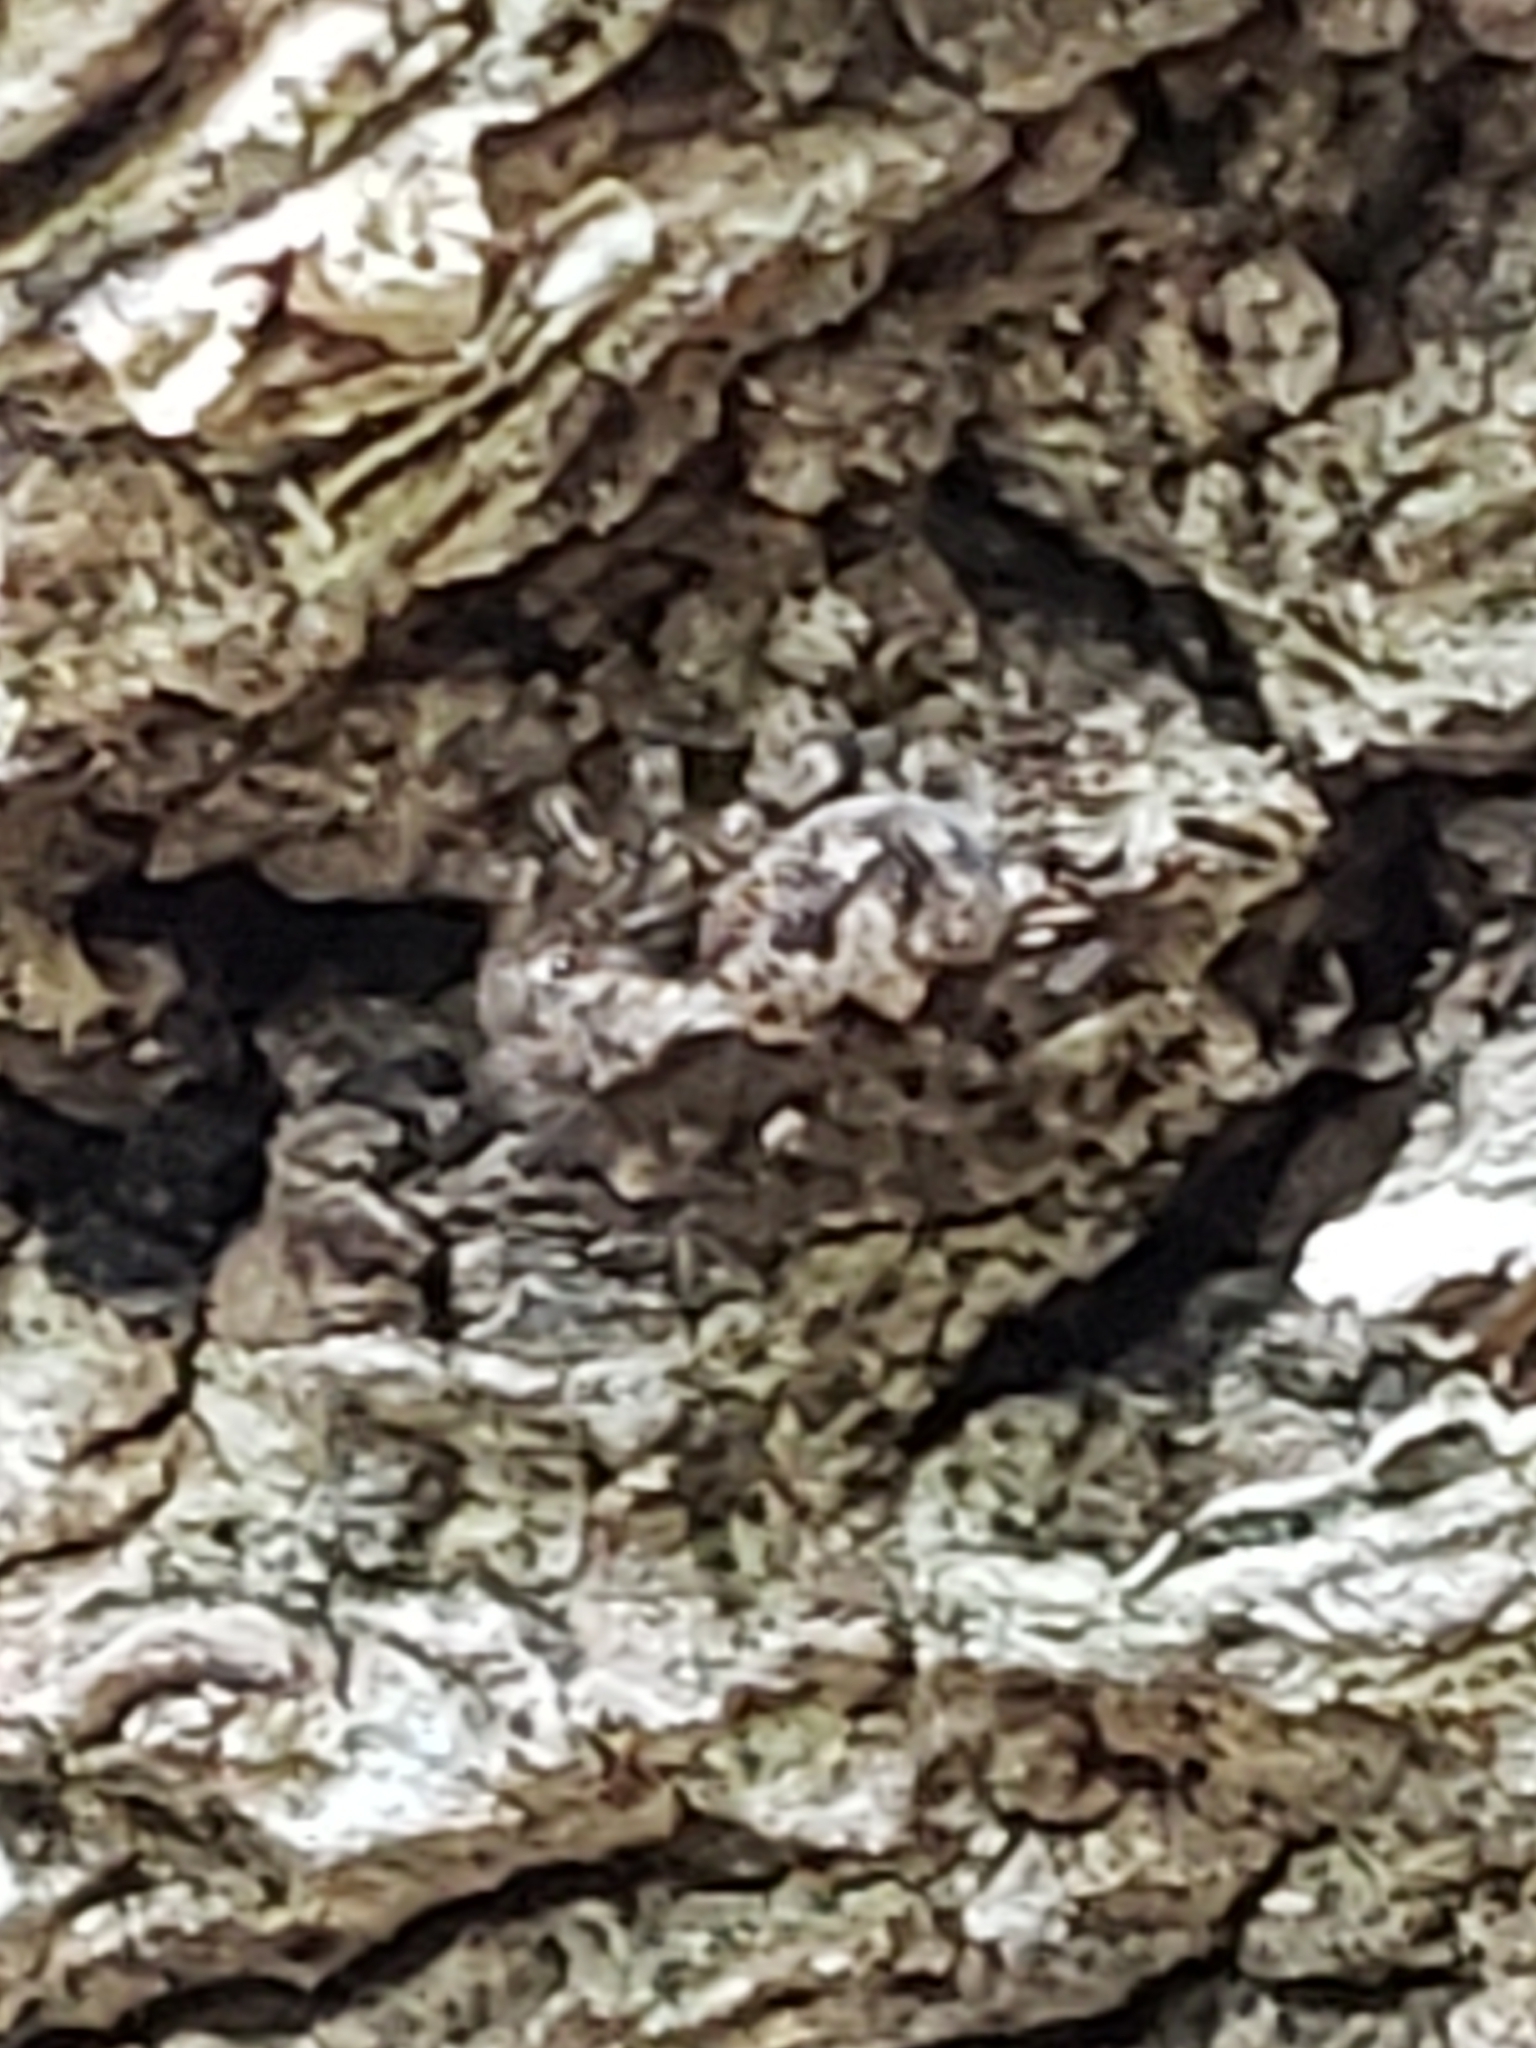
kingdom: Animalia
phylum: Arthropoda
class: Arachnida
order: Araneae
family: Salticidae
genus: Naphrys
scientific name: Naphrys pulex
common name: Flea jumping spider
